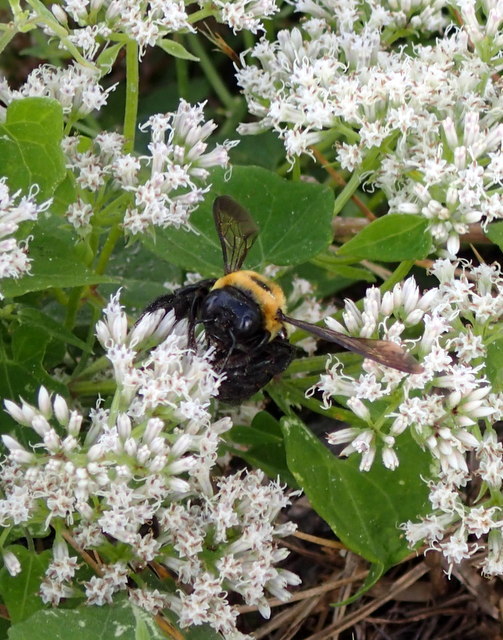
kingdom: Animalia
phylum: Arthropoda
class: Insecta
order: Hymenoptera
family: Apidae
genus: Xylocopa
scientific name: Xylocopa virginica
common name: Carpenter bee
